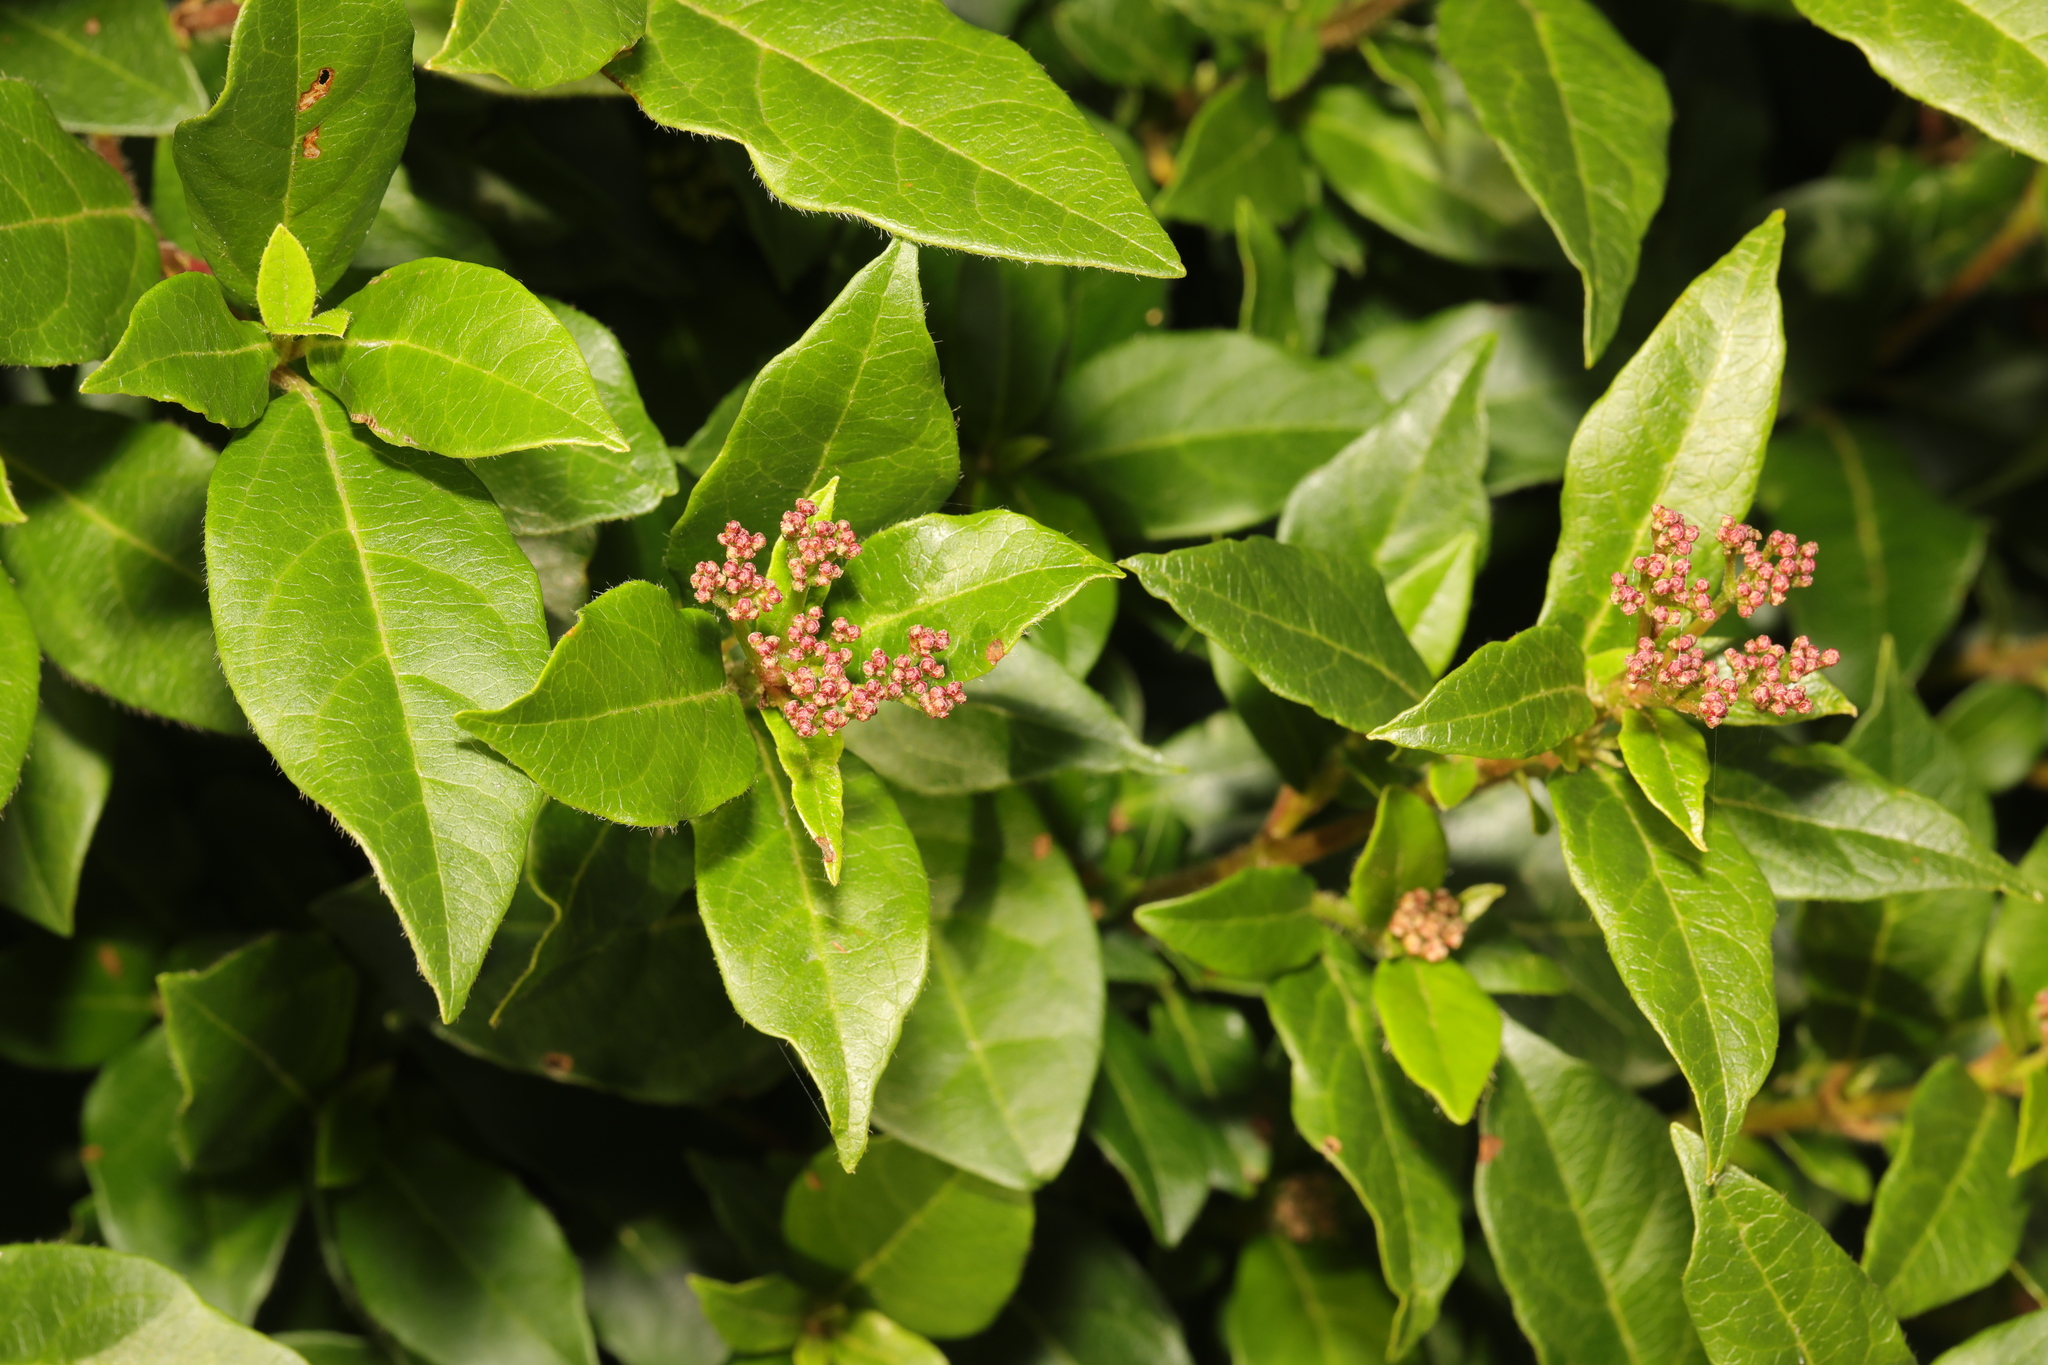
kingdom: Plantae
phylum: Tracheophyta
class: Magnoliopsida
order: Dipsacales
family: Viburnaceae
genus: Viburnum
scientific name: Viburnum tinus
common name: Laurustinus
